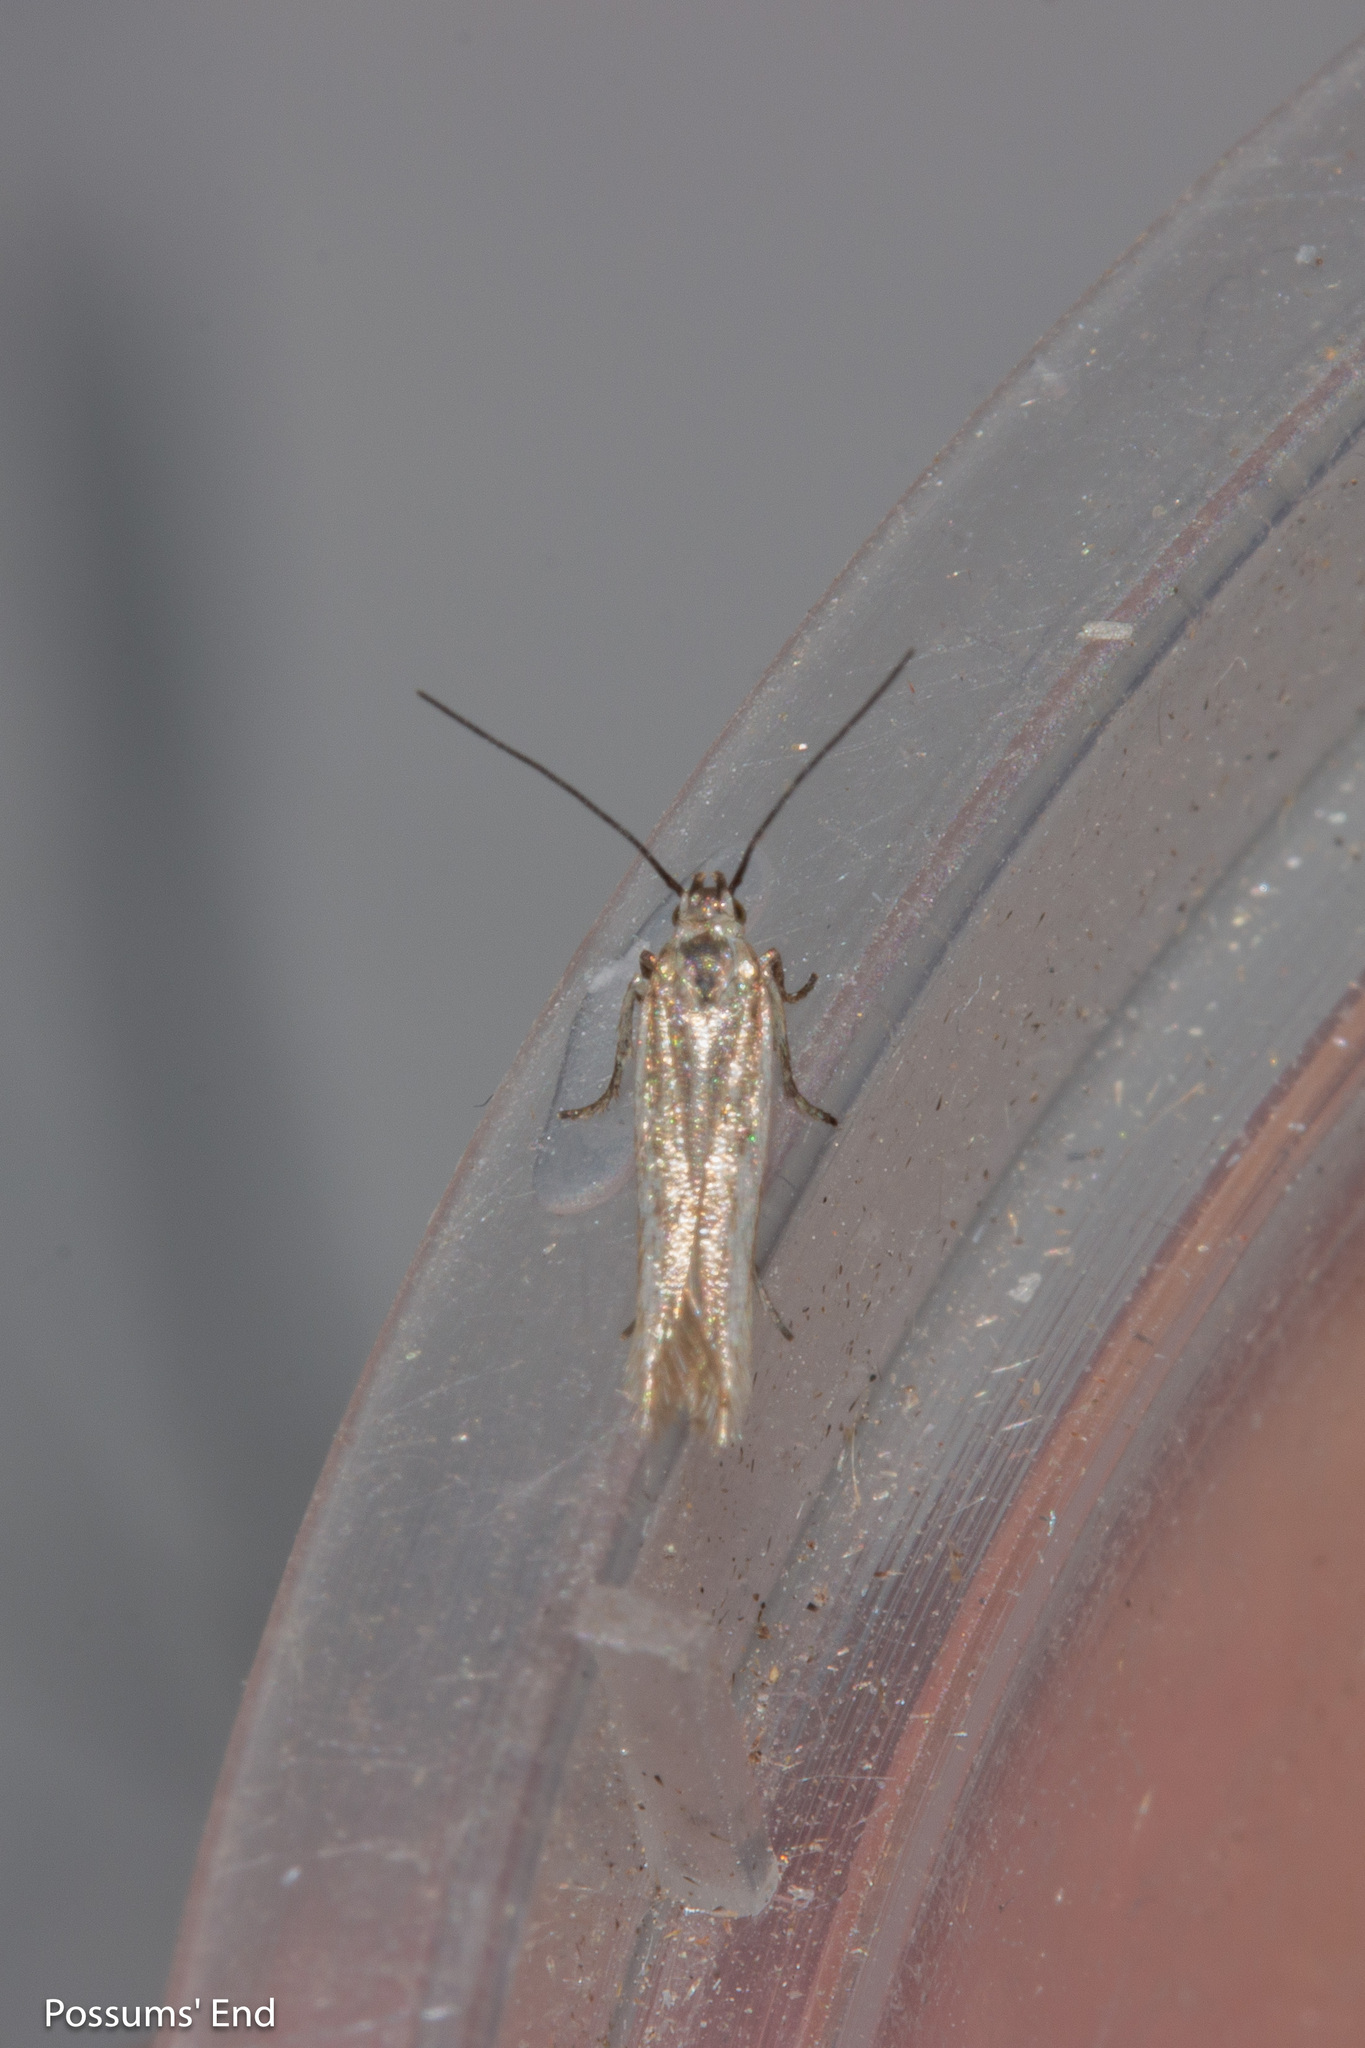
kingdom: Animalia
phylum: Arthropoda
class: Insecta
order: Lepidoptera
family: Gelechiidae
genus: Kiwaia
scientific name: Kiwaia plemochoa
